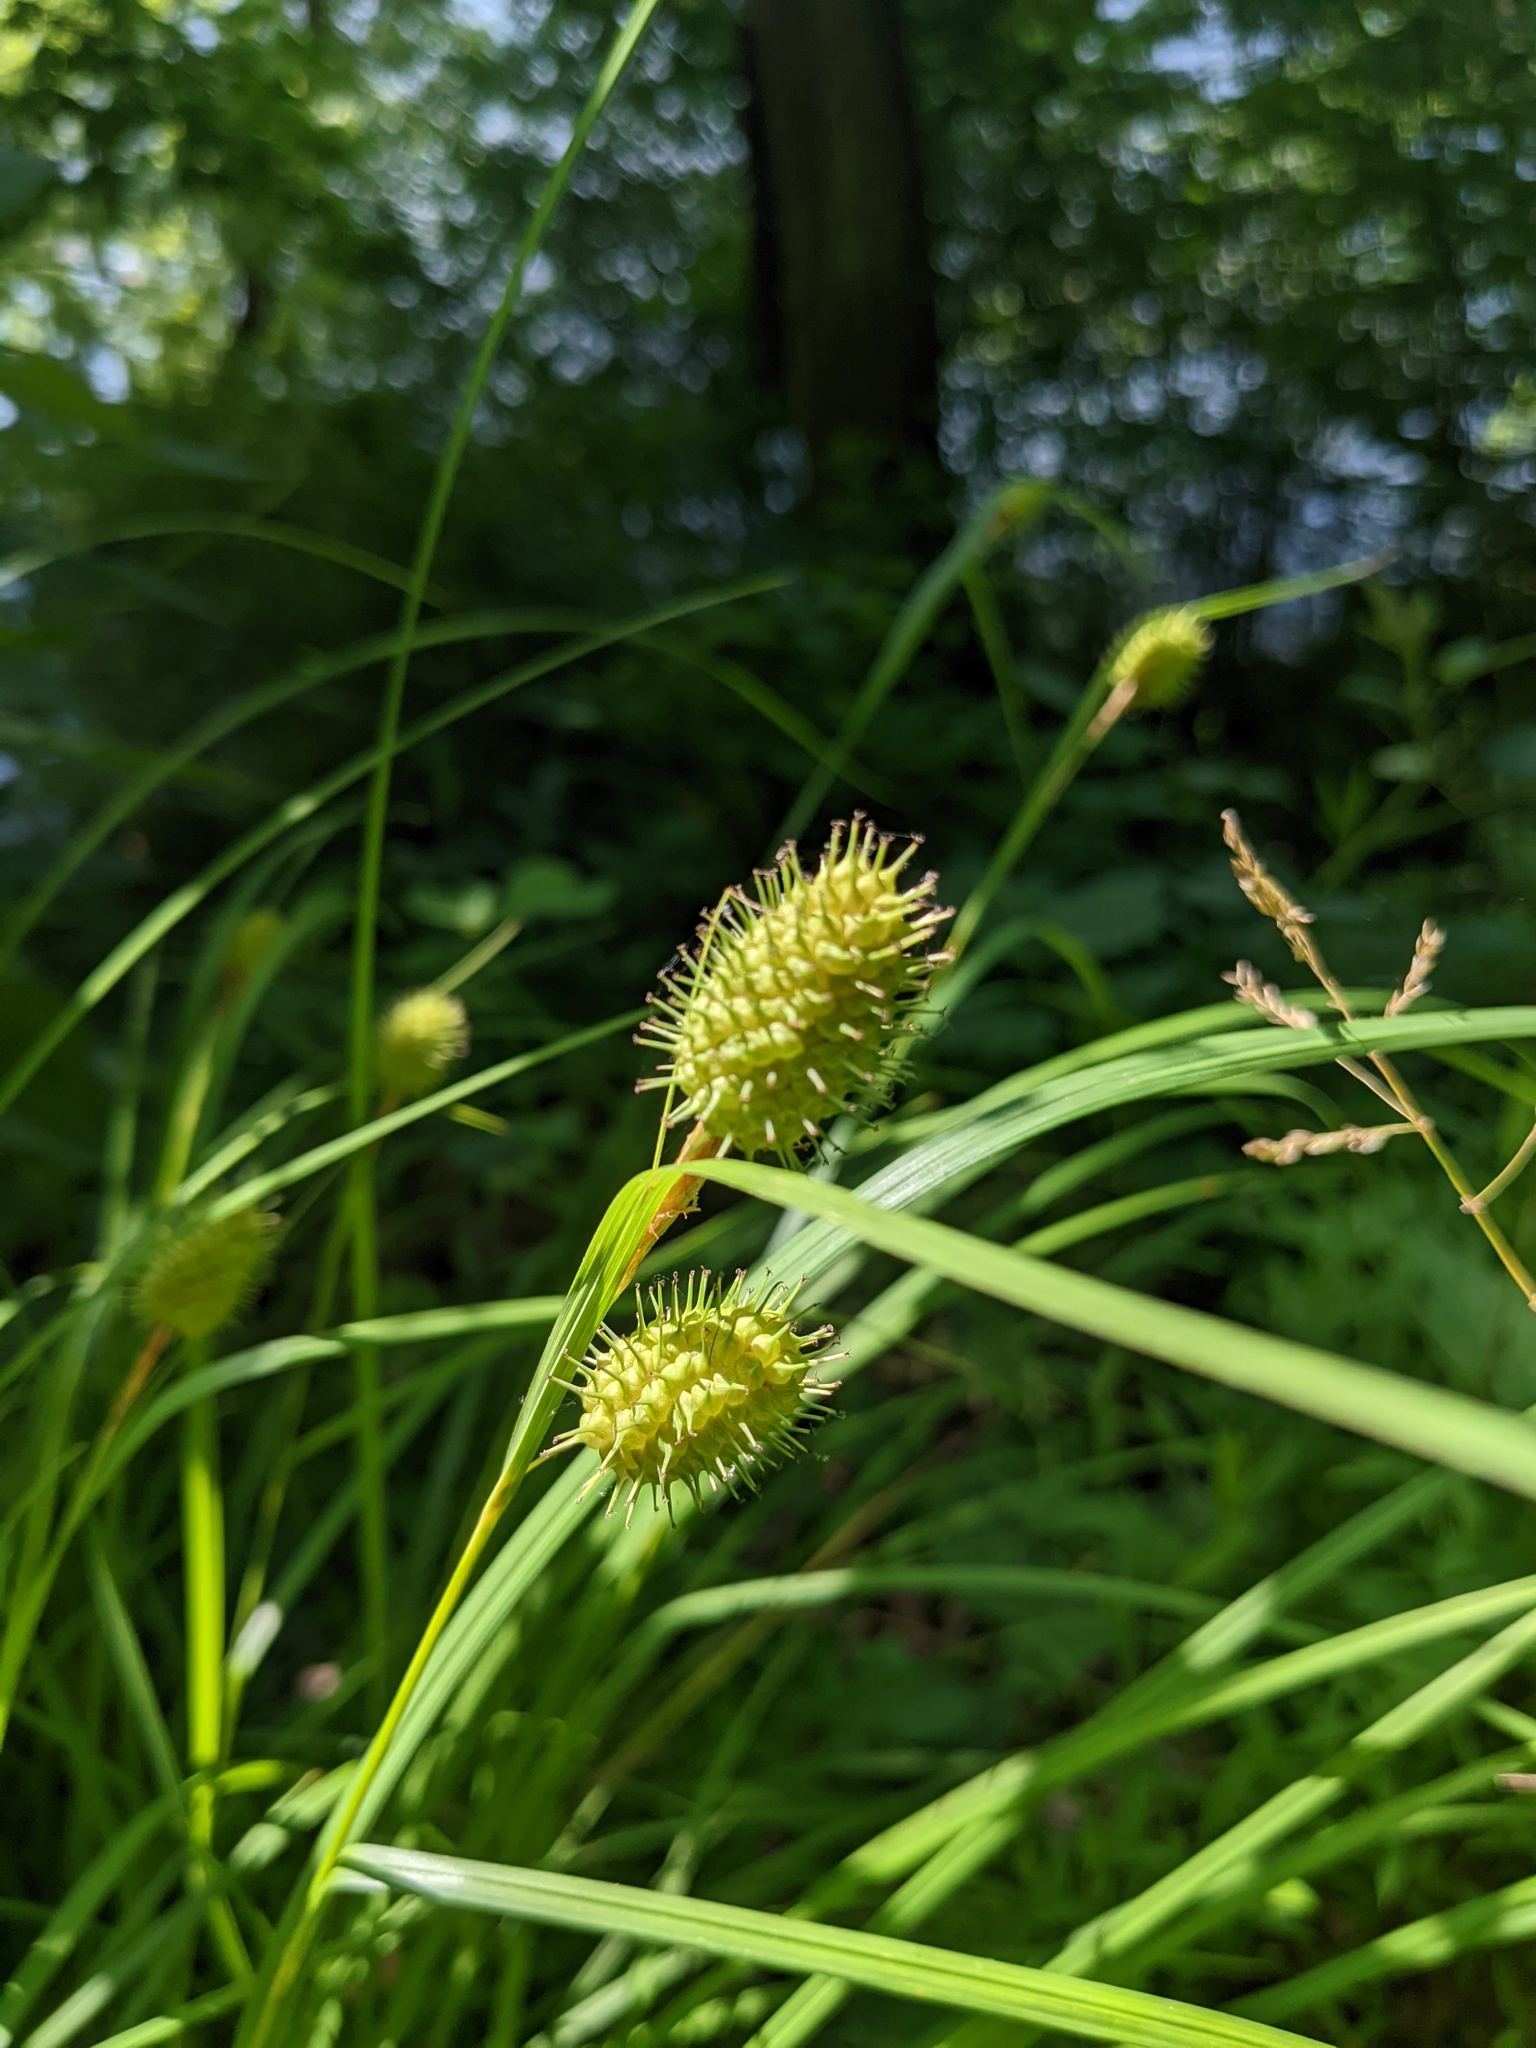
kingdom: Plantae
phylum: Tracheophyta
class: Liliopsida
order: Poales
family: Cyperaceae
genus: Carex
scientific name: Carex squarrosa
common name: Narrow-leaved cattail sedge
